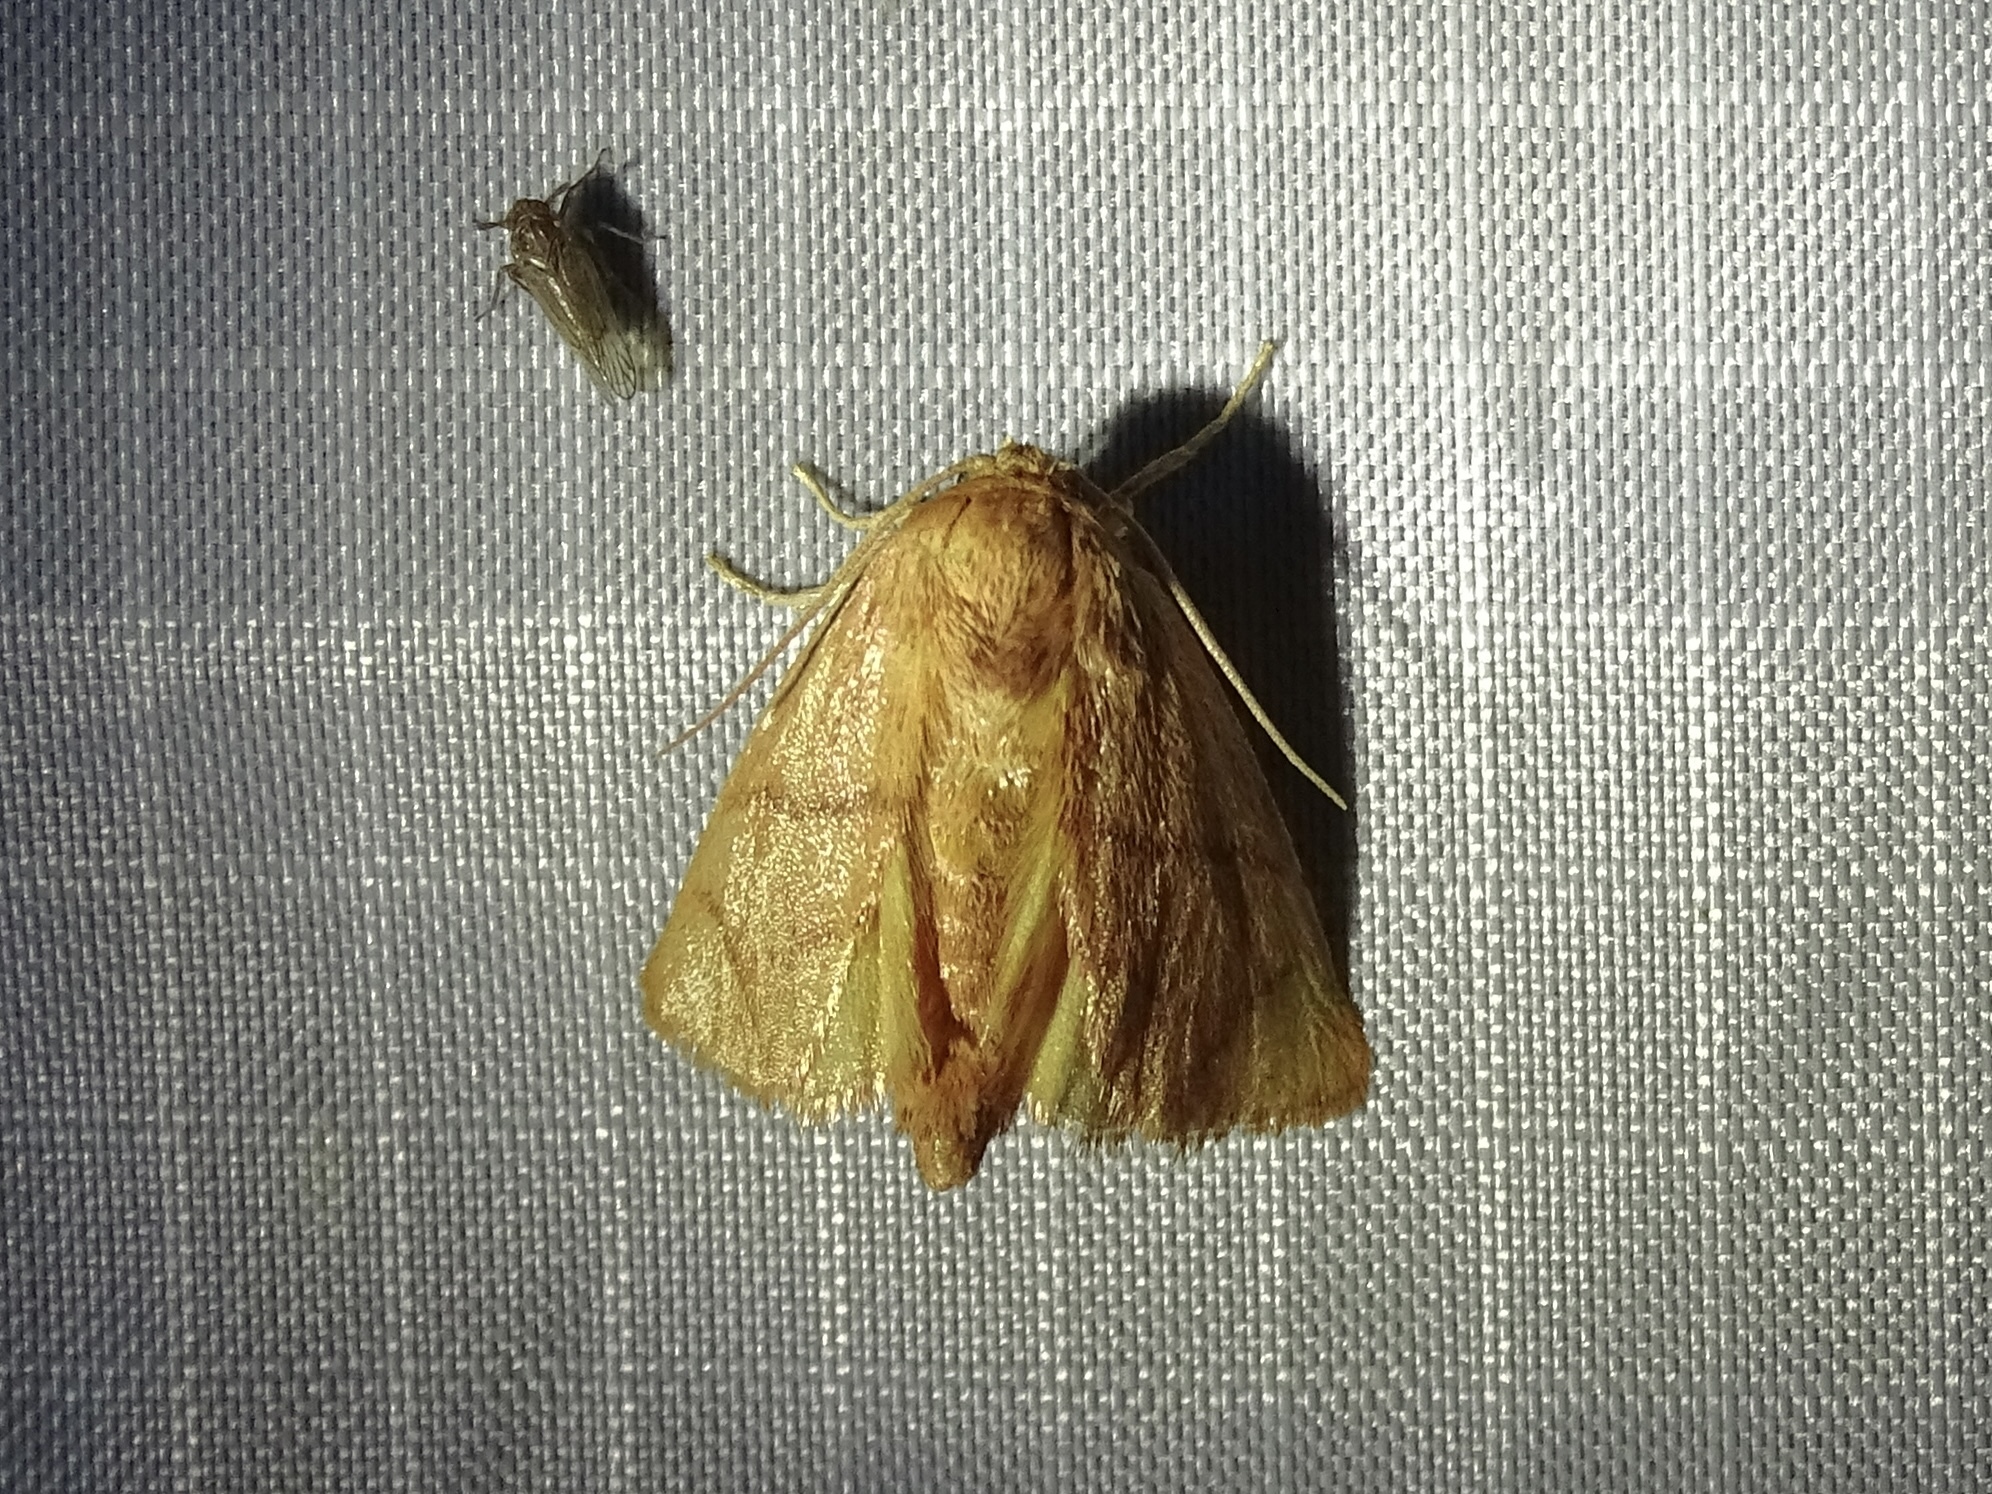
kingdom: Animalia
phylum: Arthropoda
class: Insecta
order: Lepidoptera
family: Limacodidae
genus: Apoda
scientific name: Apoda y-inversa
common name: Yellow-collared slug moth
